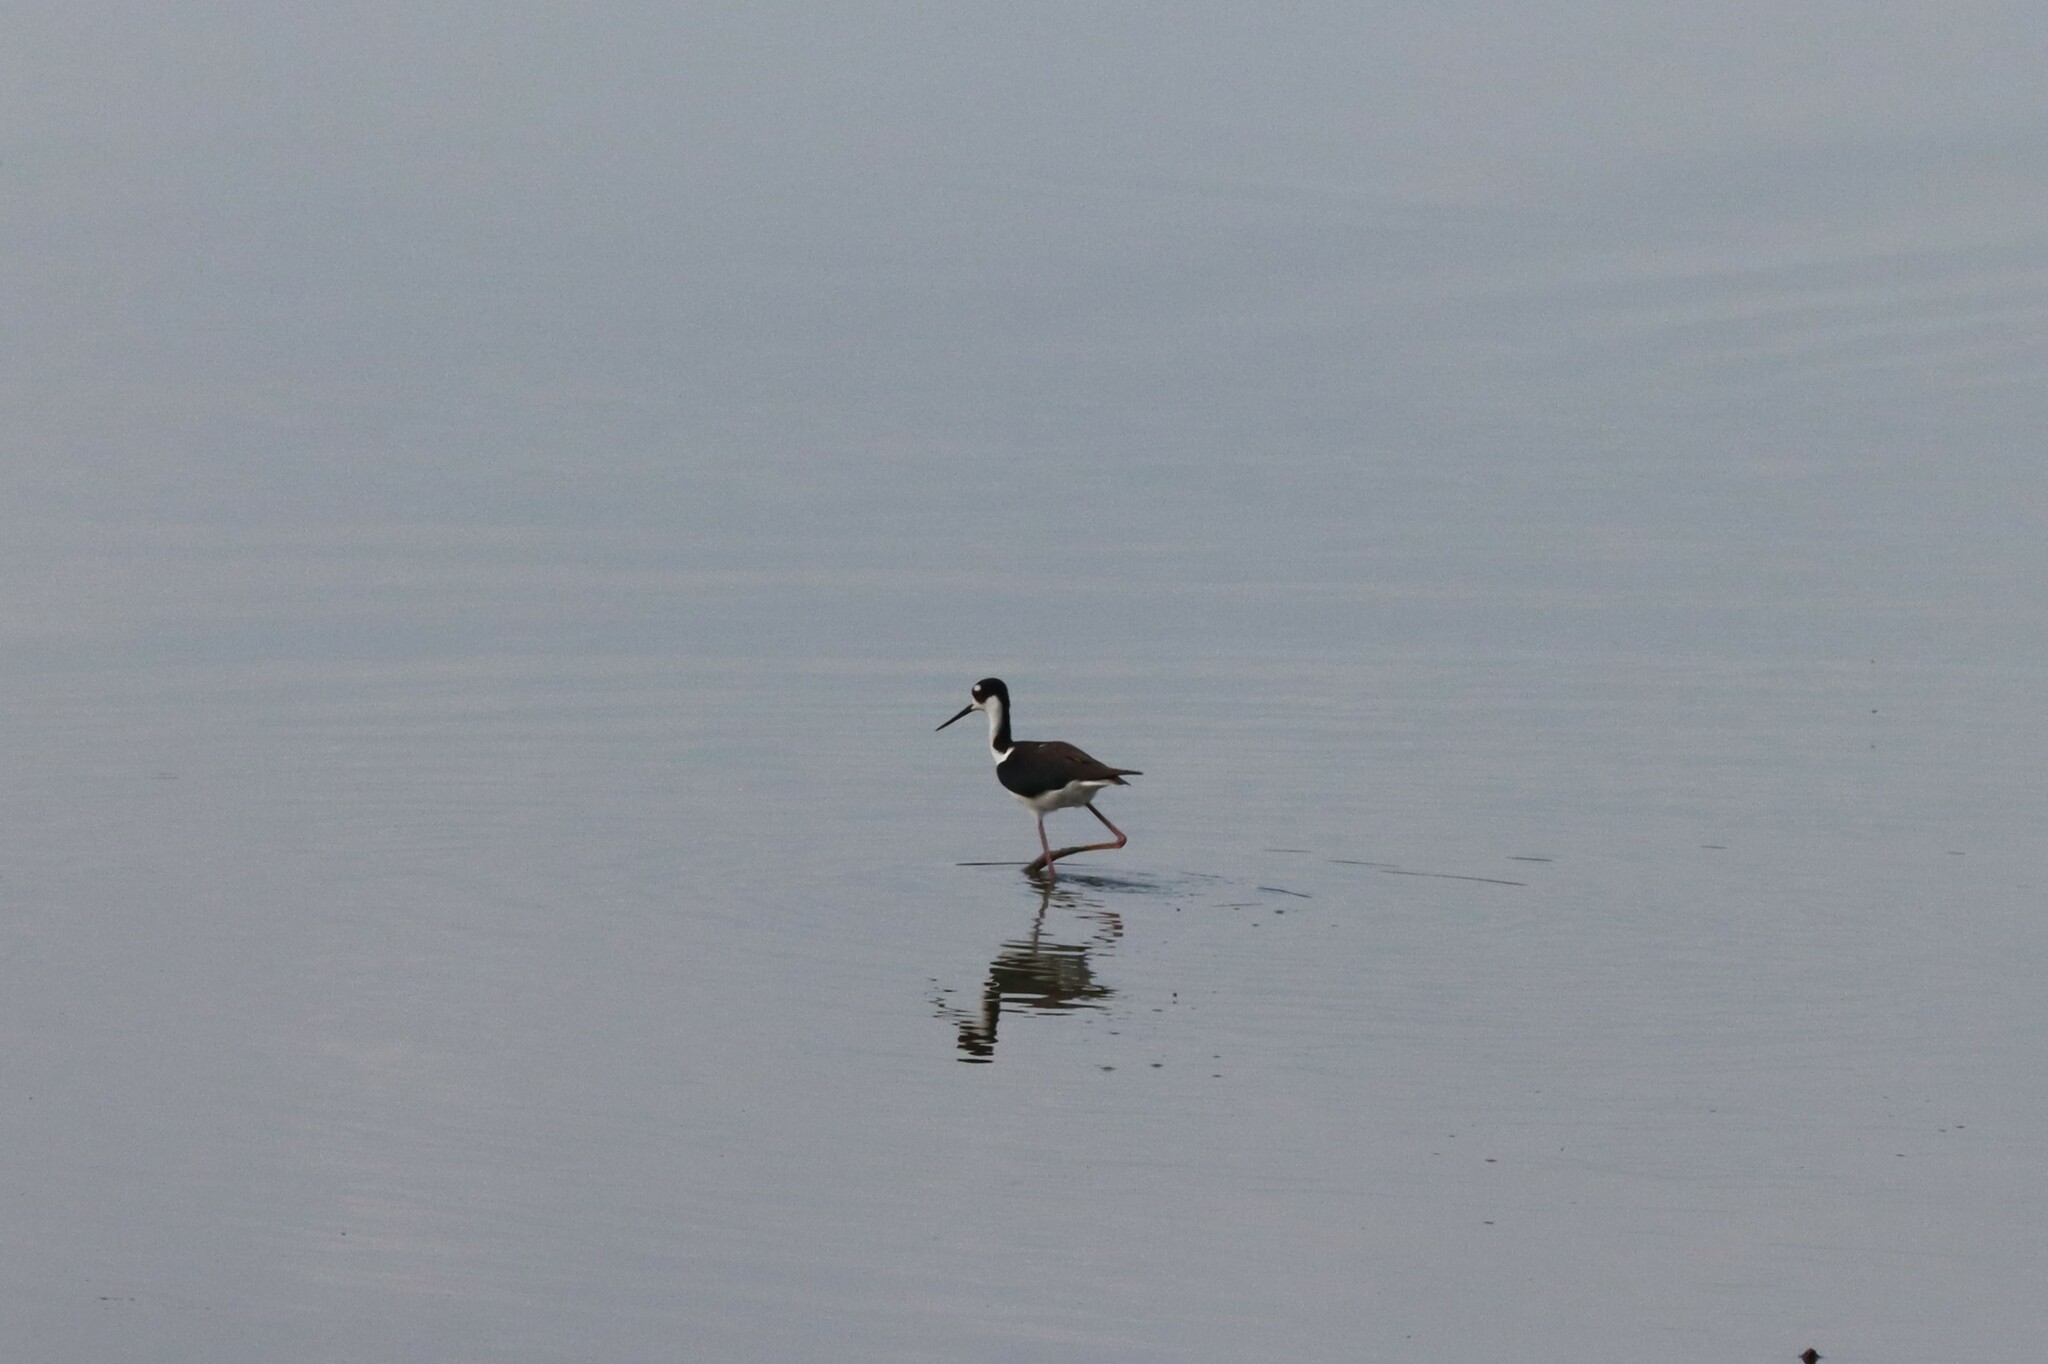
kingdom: Animalia
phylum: Chordata
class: Aves
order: Charadriiformes
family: Recurvirostridae
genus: Himantopus
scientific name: Himantopus mexicanus
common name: Black-necked stilt
